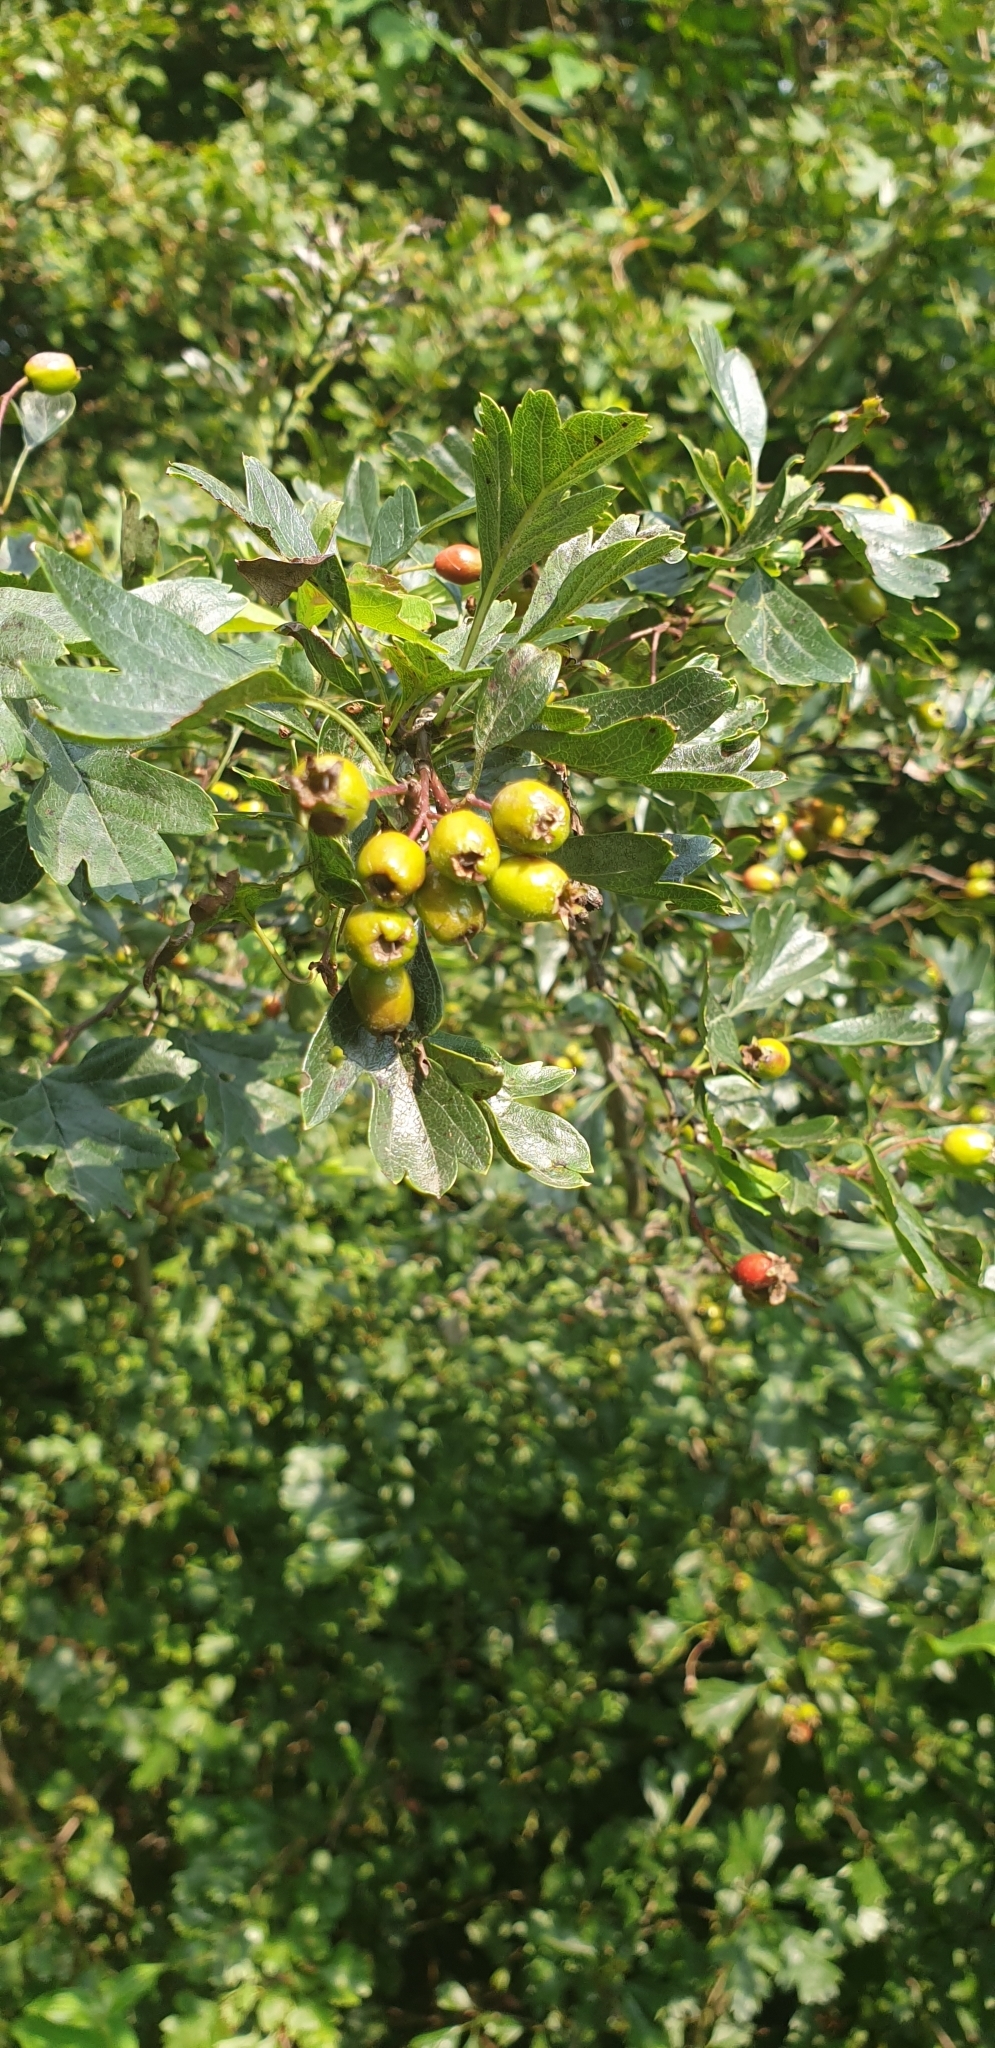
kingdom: Plantae
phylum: Tracheophyta
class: Magnoliopsida
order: Rosales
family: Rosaceae
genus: Crataegus
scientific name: Crataegus monogyna
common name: Hawthorn
